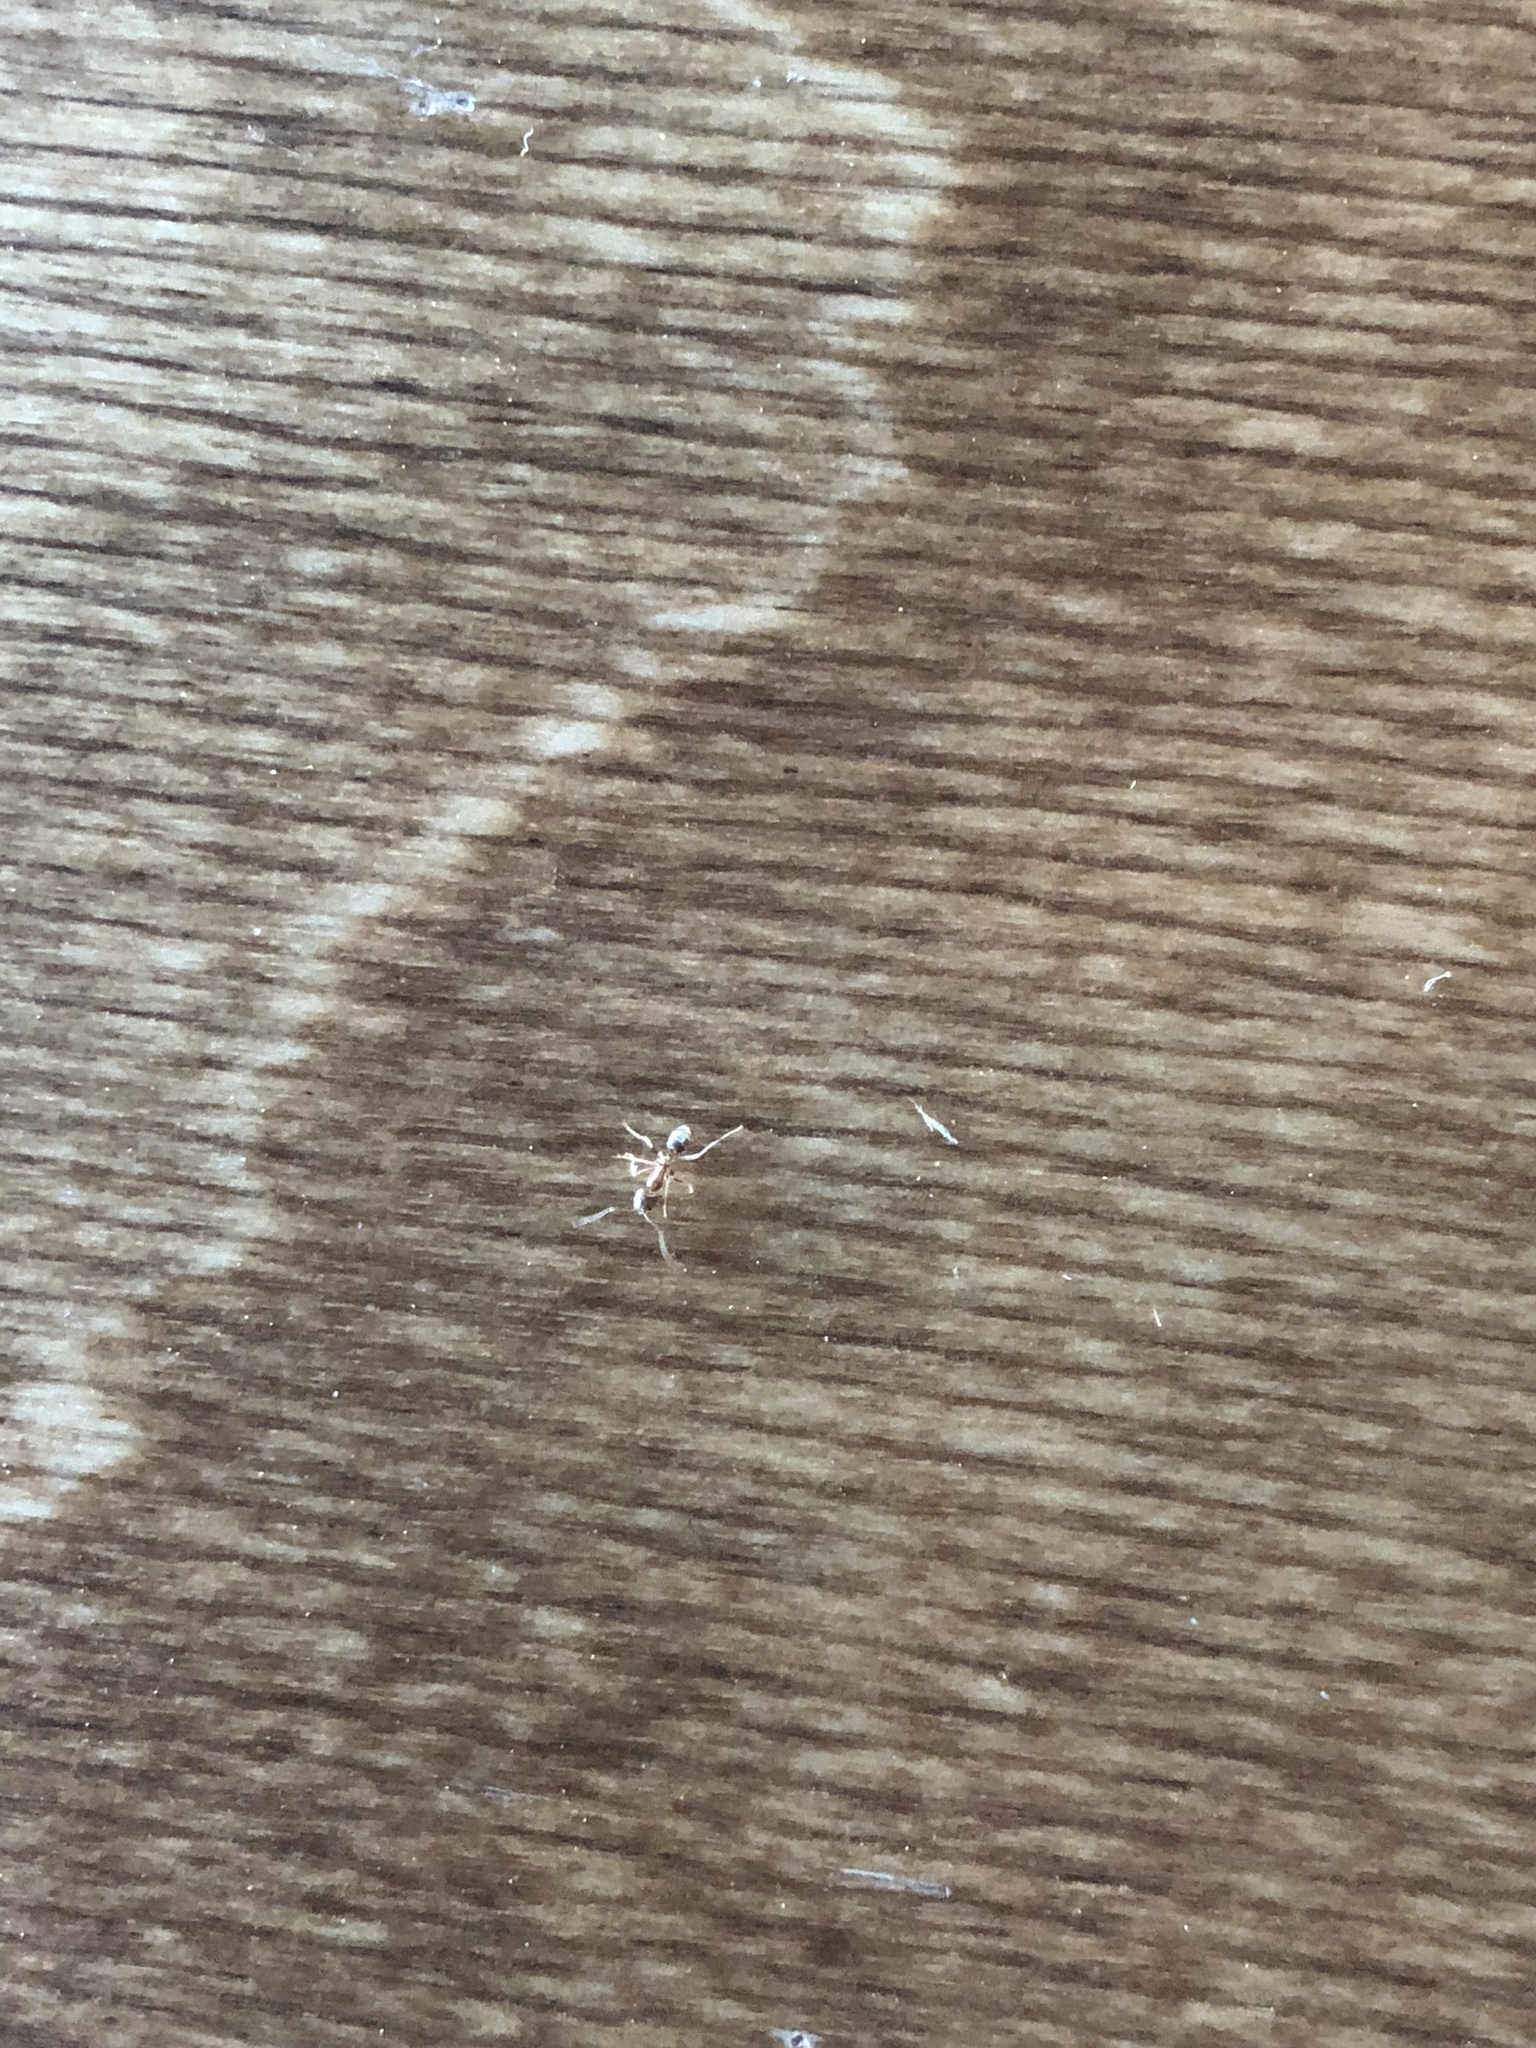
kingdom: Animalia
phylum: Arthropoda
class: Insecta
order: Hymenoptera
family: Formicidae
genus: Linepithema
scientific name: Linepithema humile
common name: Argentine ant
